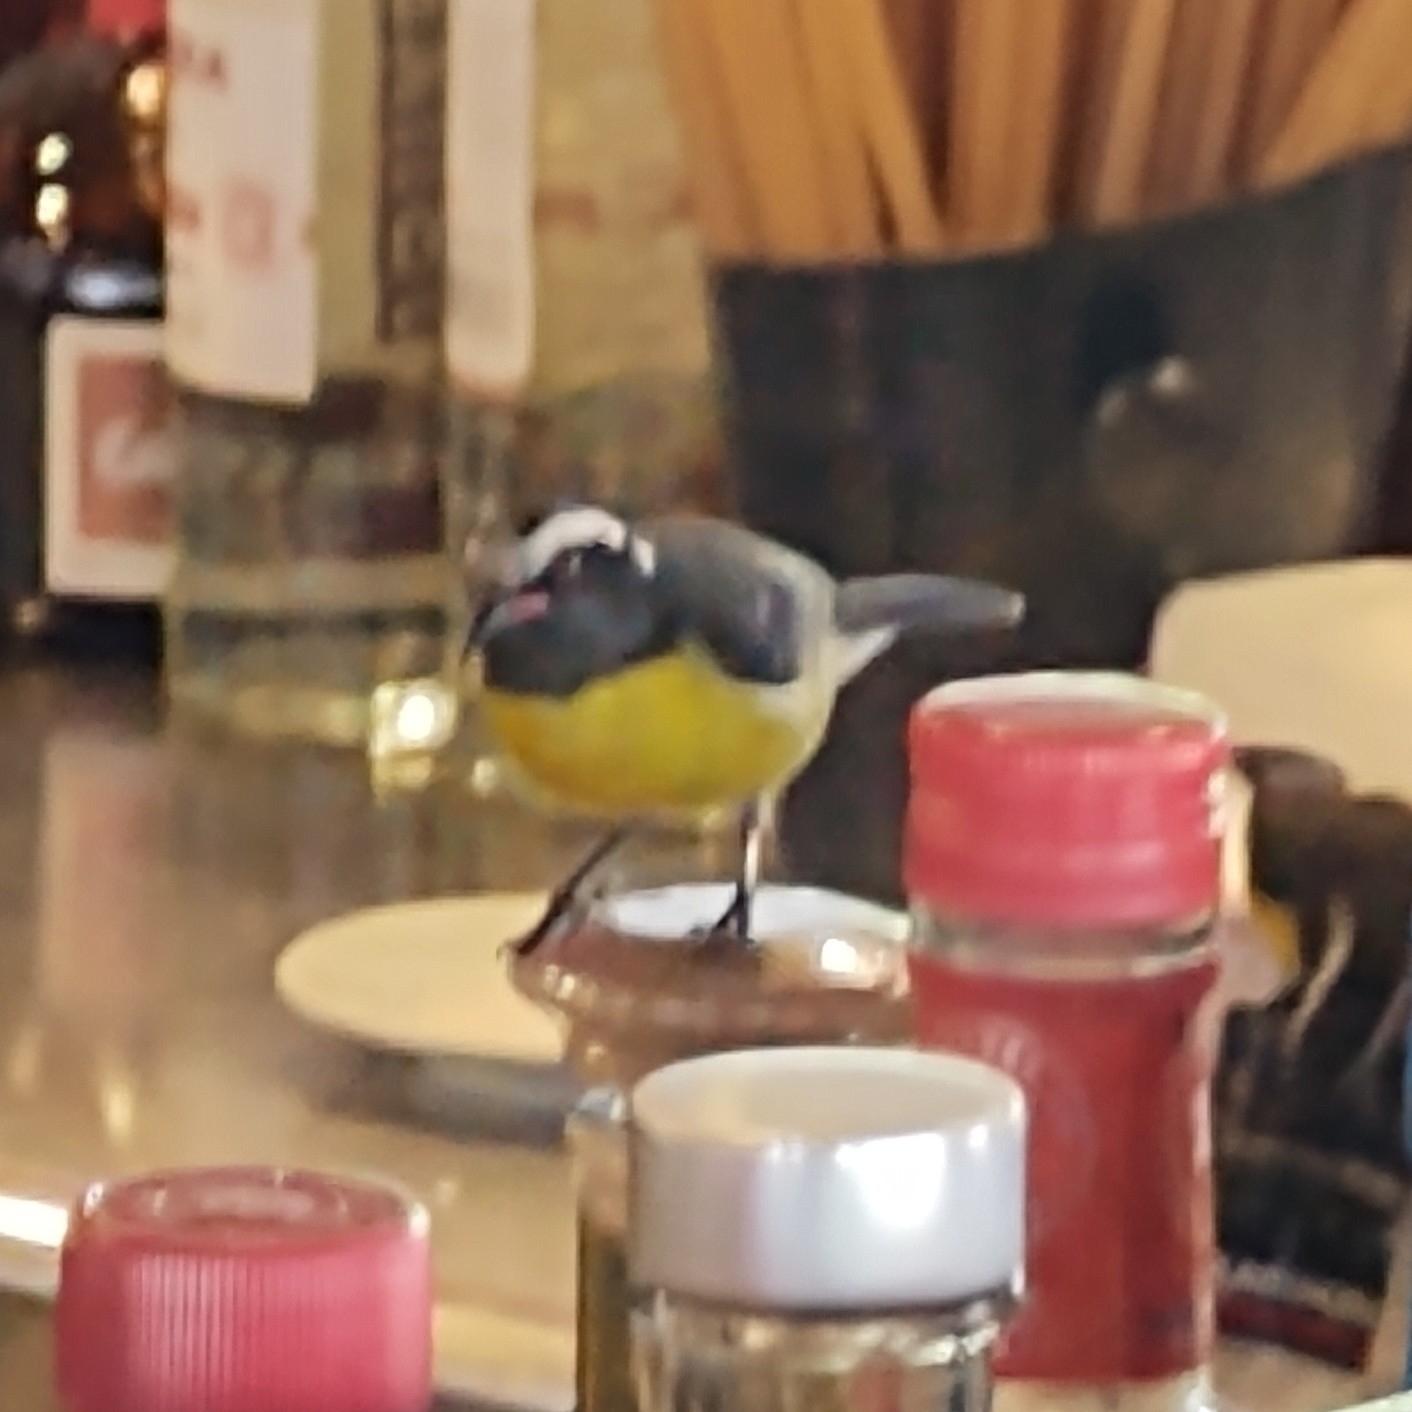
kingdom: Animalia
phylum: Chordata
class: Aves
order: Passeriformes
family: Thraupidae
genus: Coereba
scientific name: Coereba flaveola
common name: Bananaquit
